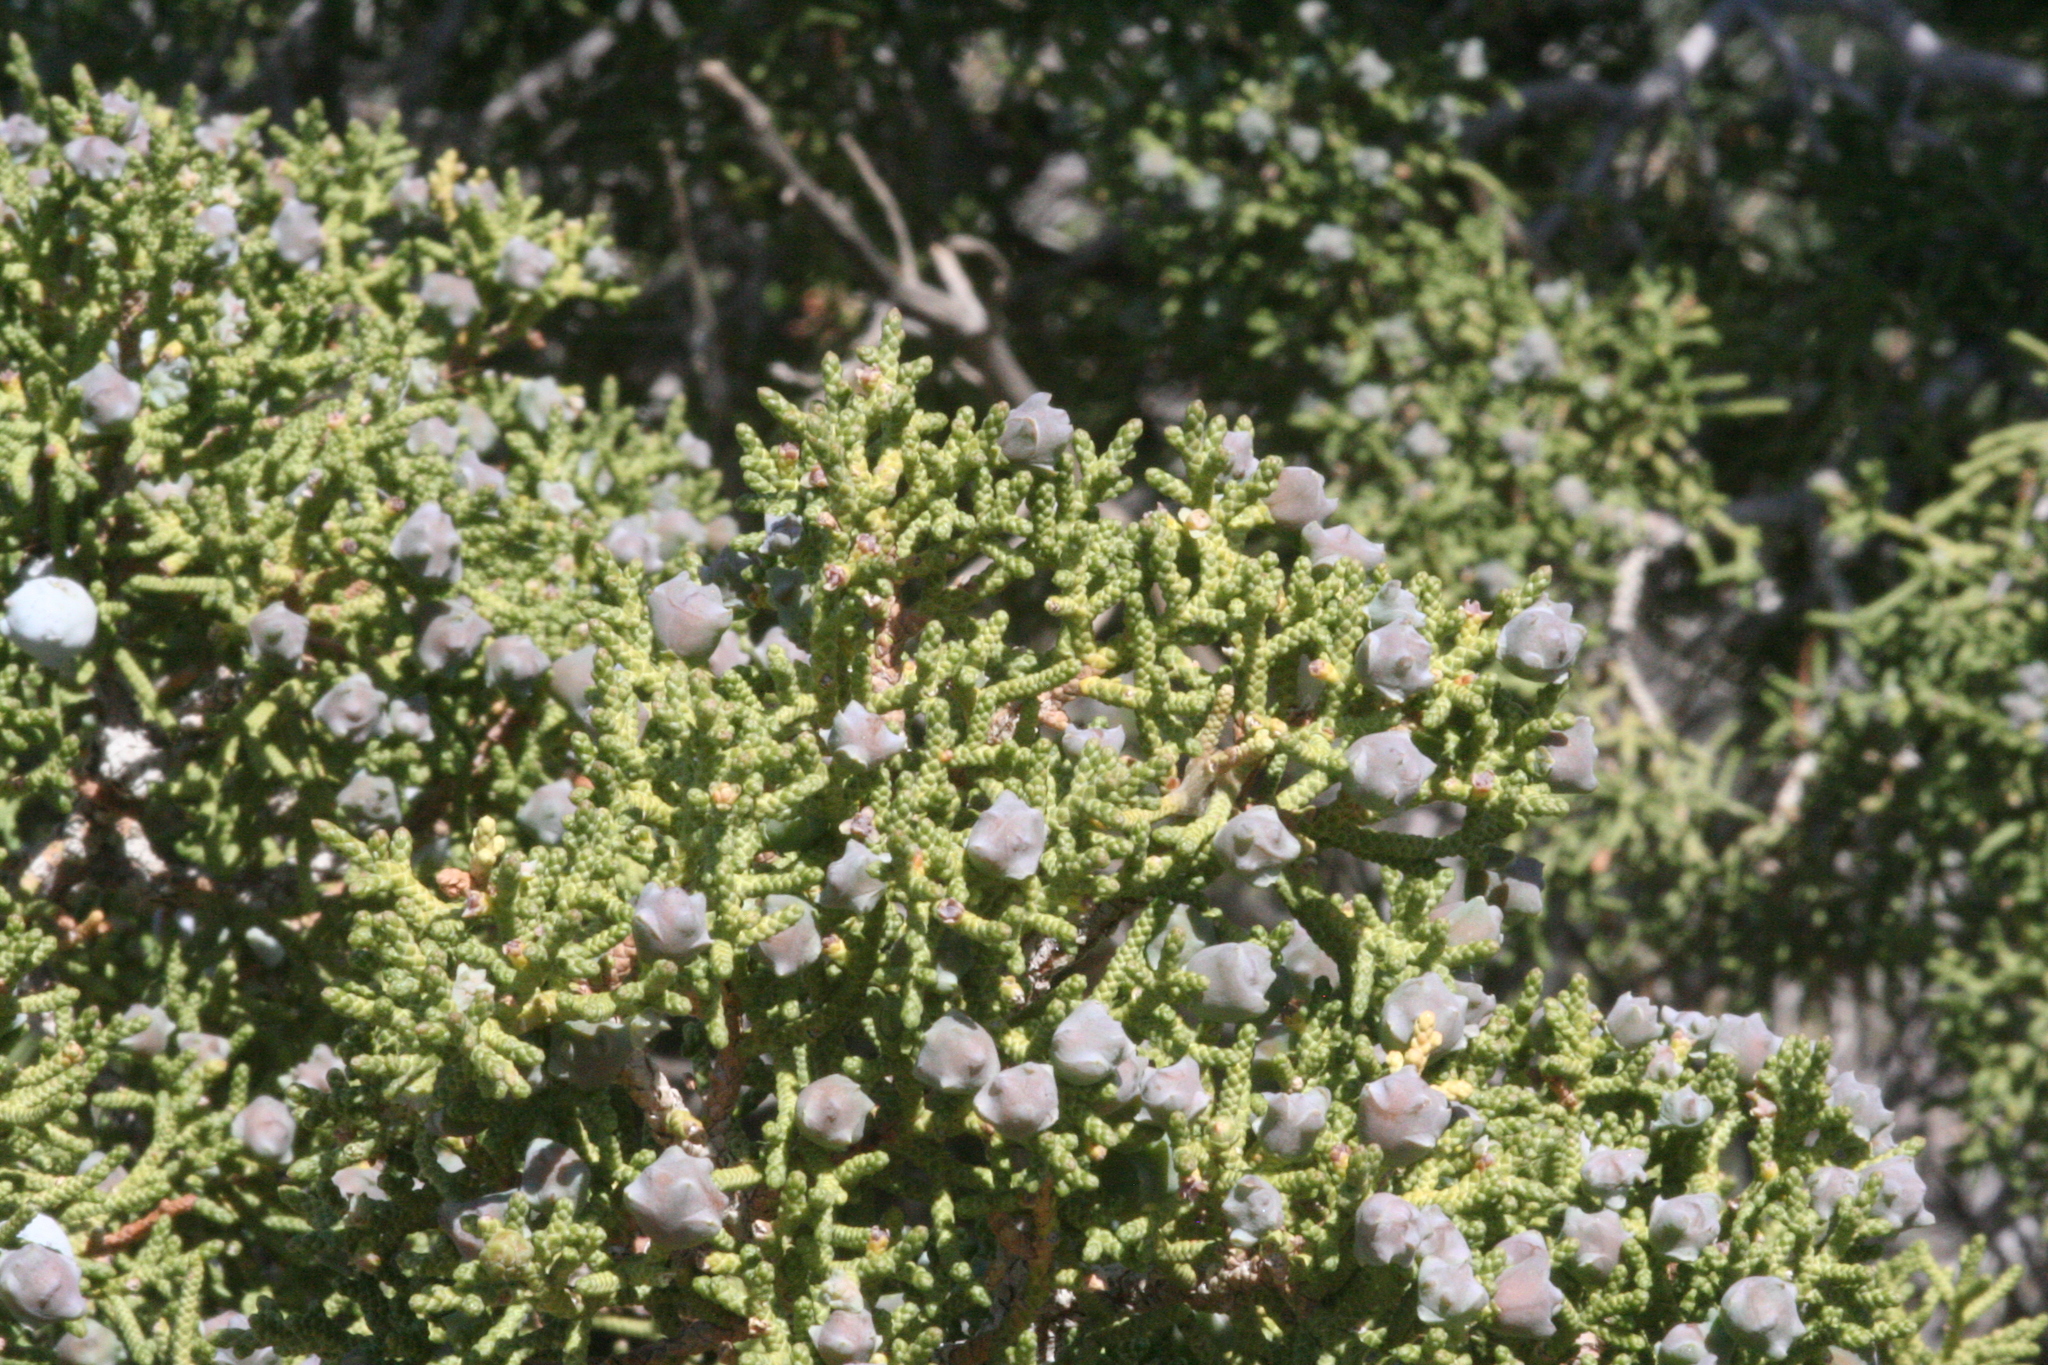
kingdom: Plantae
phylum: Tracheophyta
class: Pinopsida
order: Pinales
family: Cupressaceae
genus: Juniperus
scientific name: Juniperus californica
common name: California juniper
